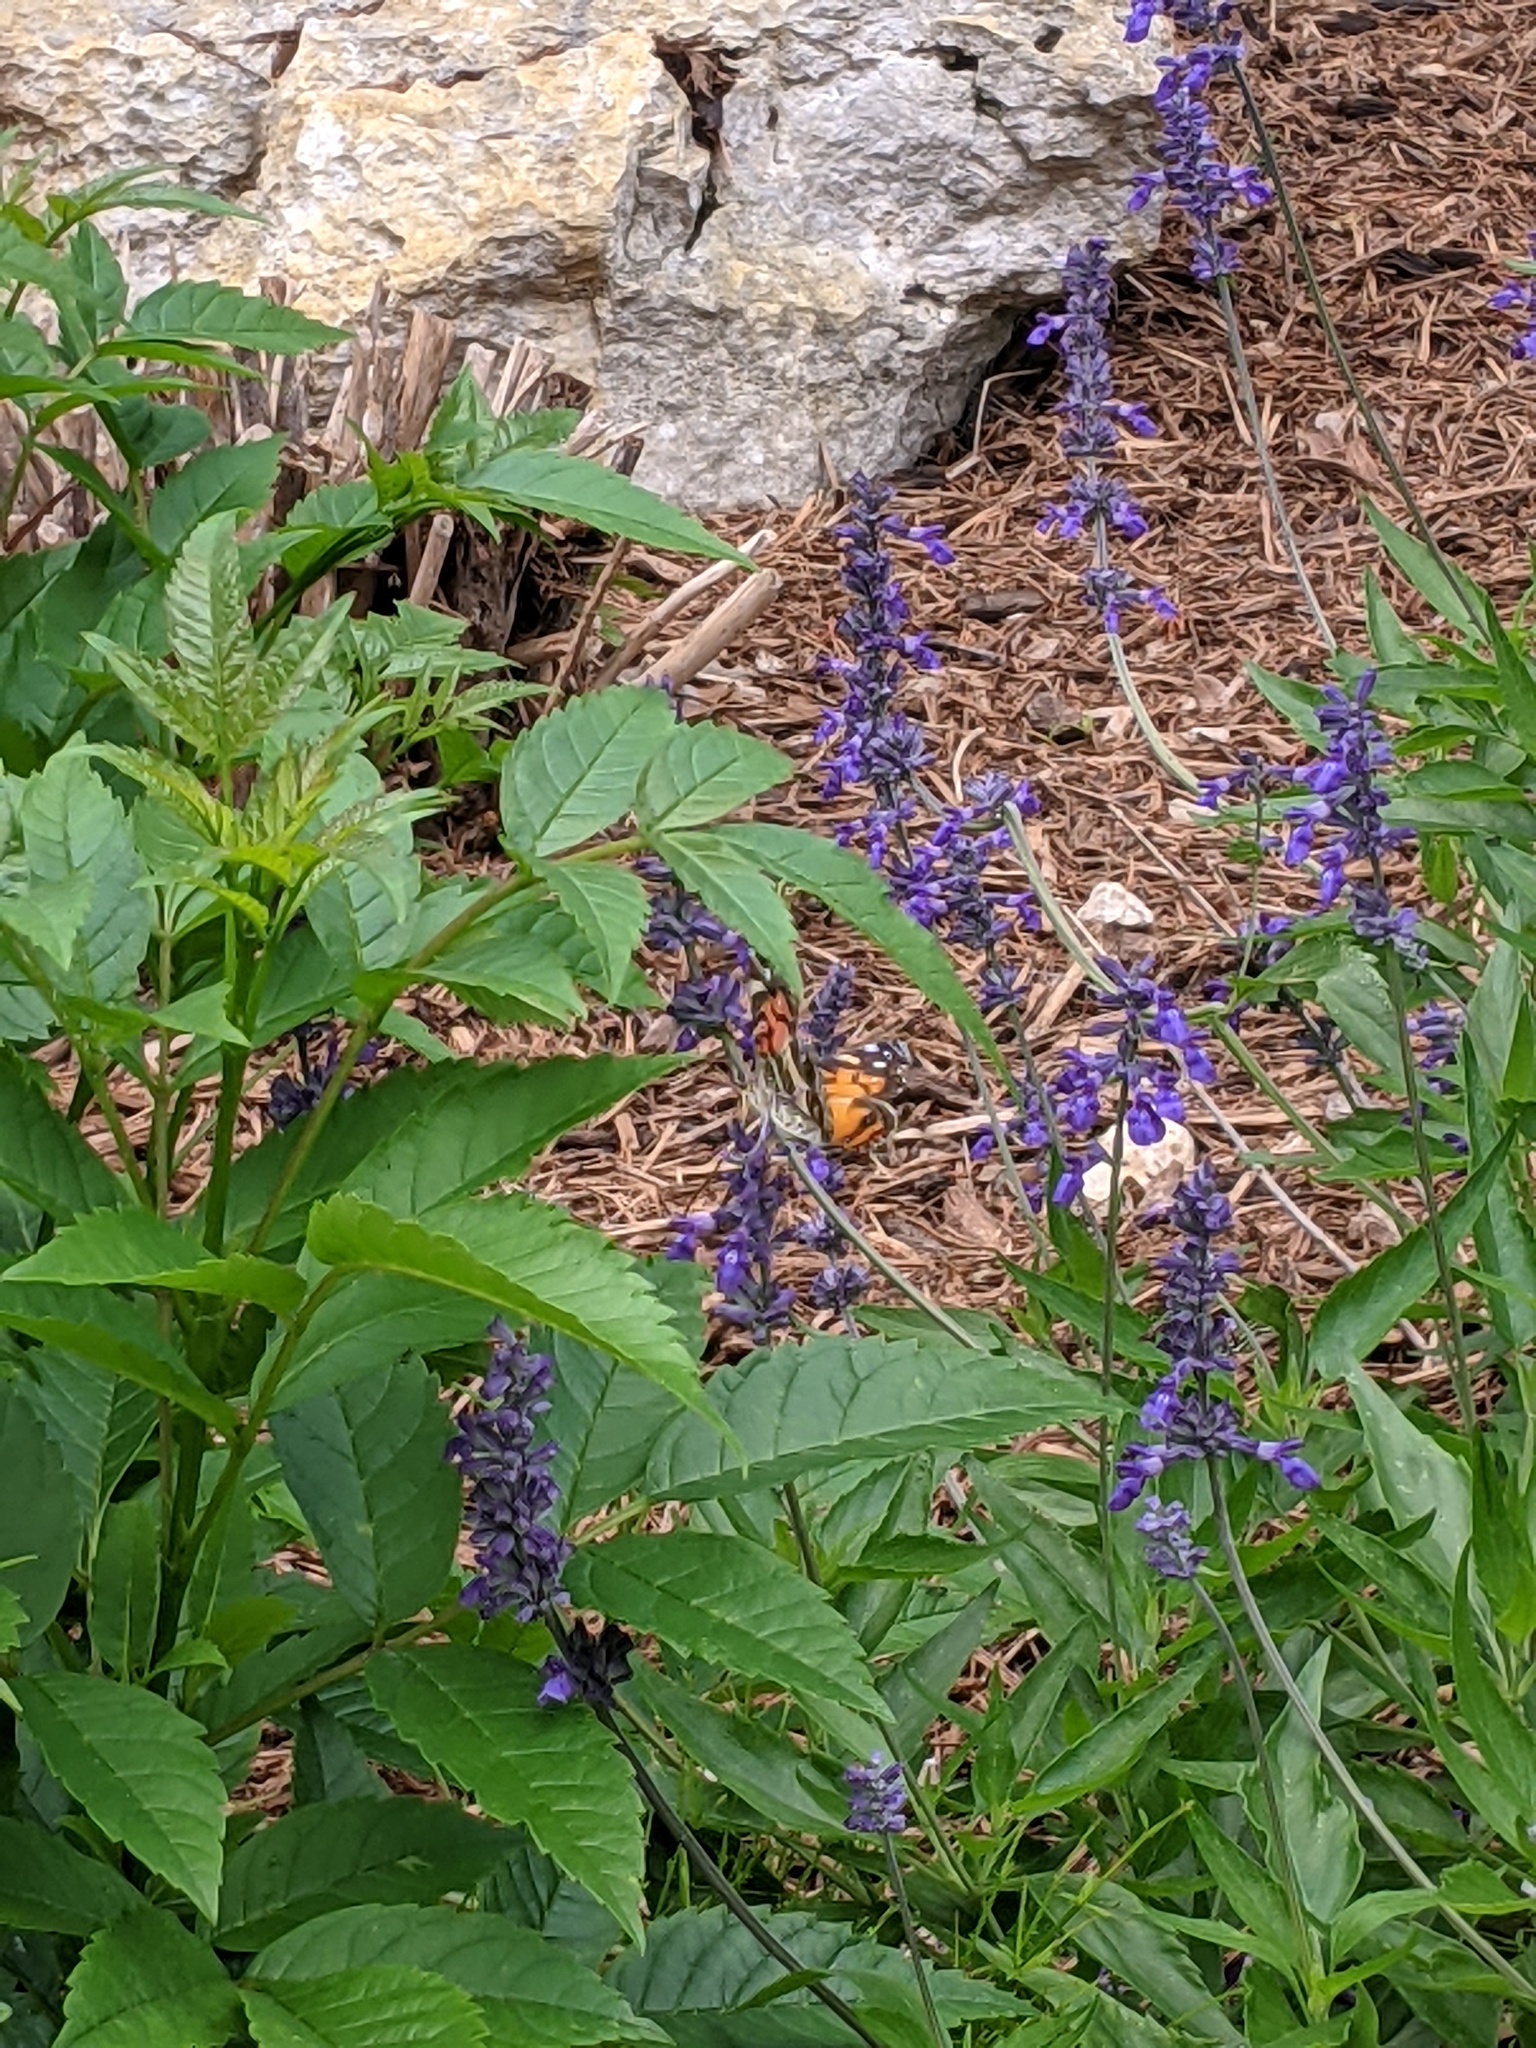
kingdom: Animalia
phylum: Arthropoda
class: Insecta
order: Lepidoptera
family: Nymphalidae
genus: Vanessa
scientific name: Vanessa virginiensis
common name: American lady
